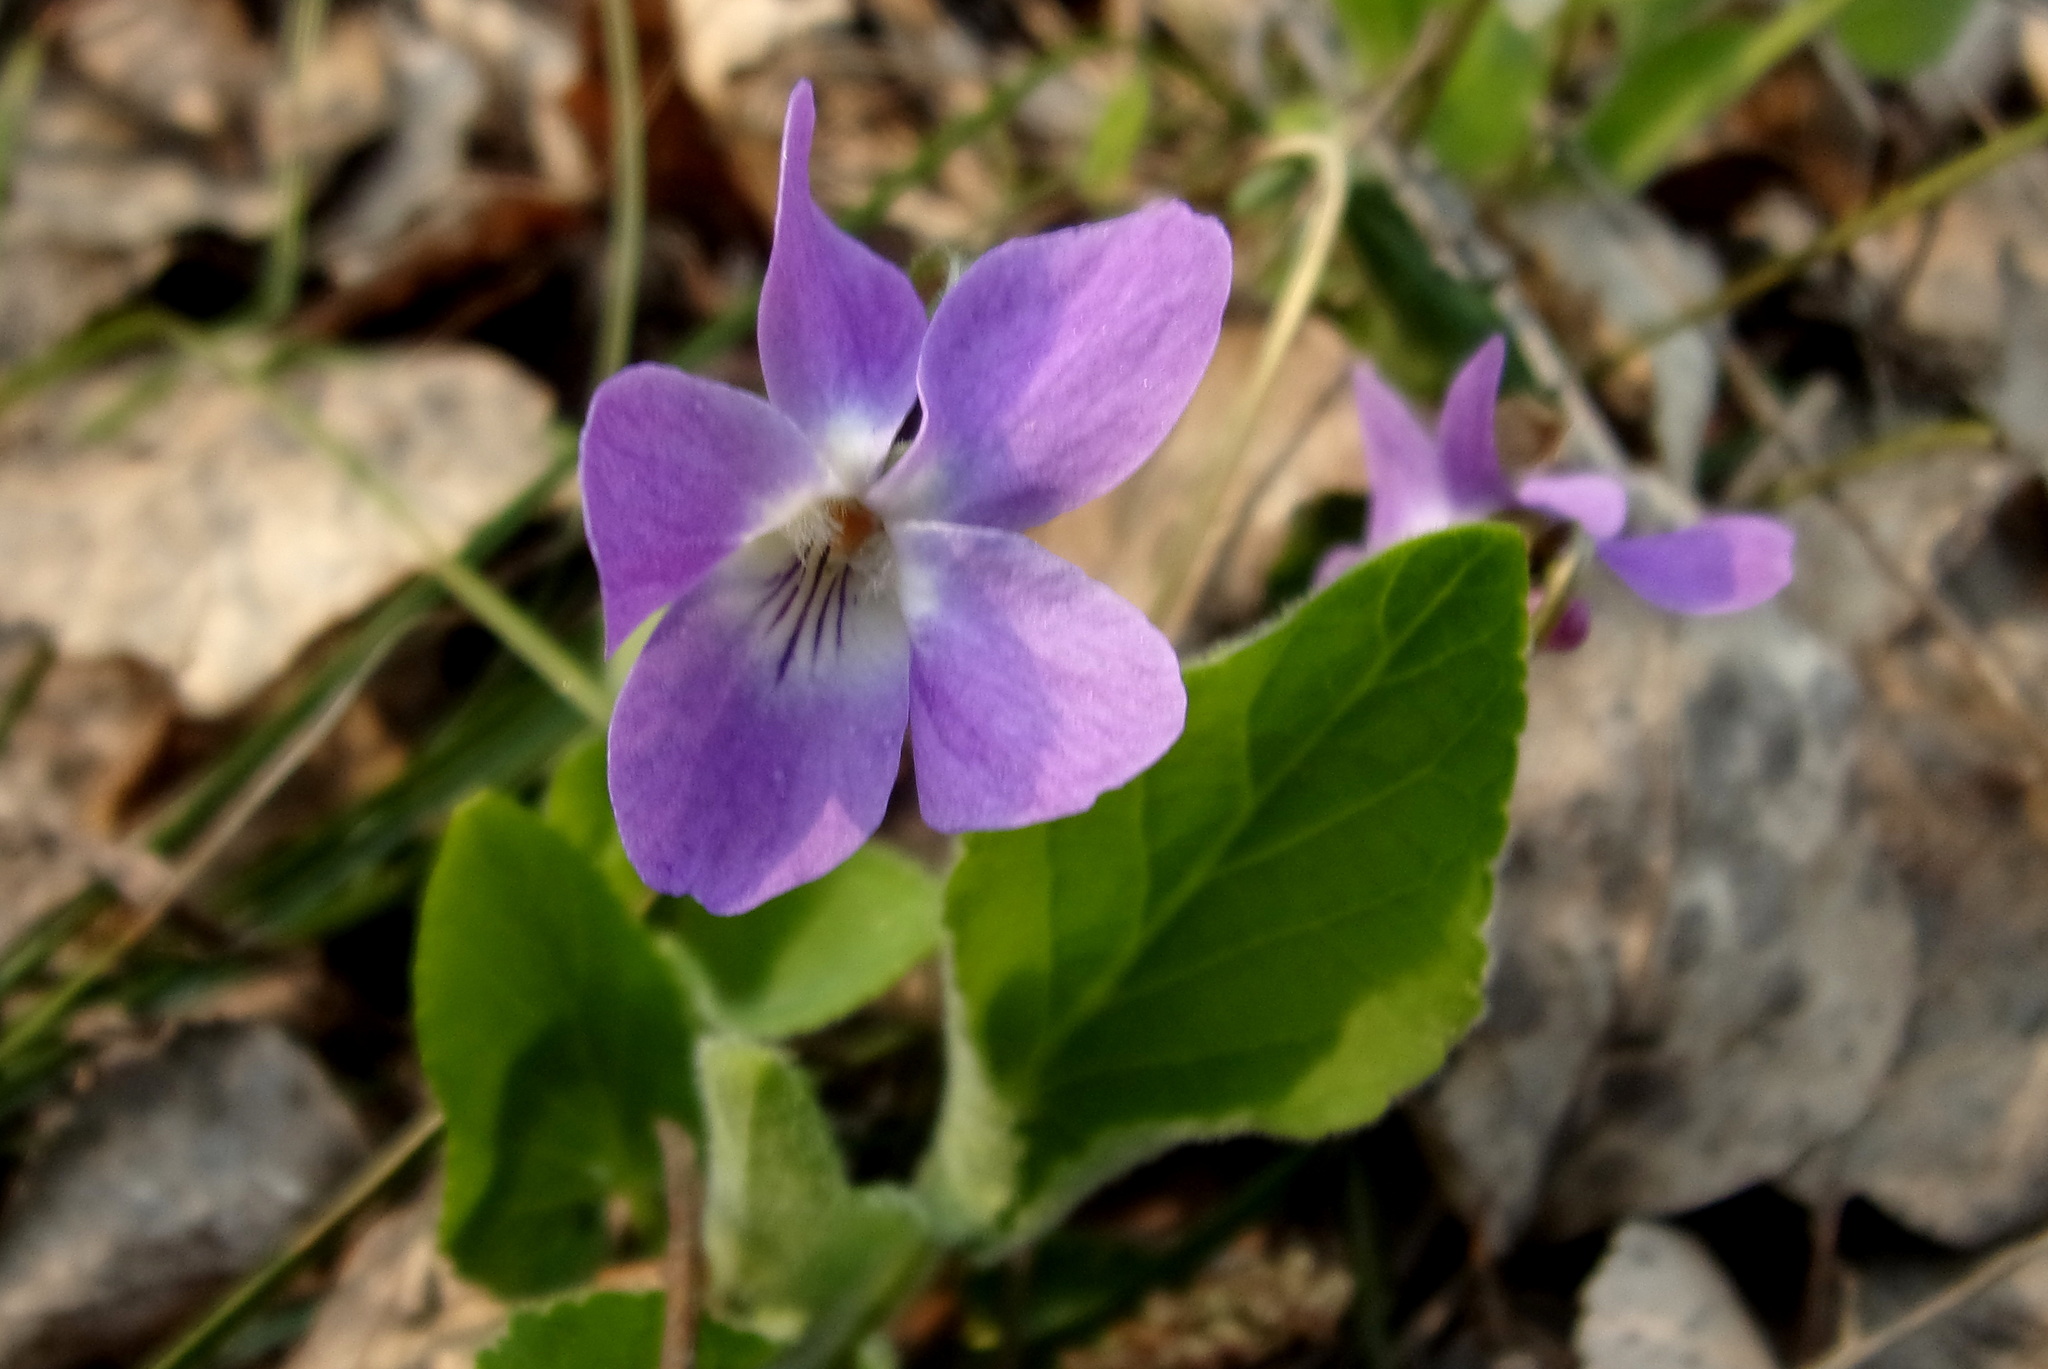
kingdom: Plantae
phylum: Tracheophyta
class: Magnoliopsida
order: Malpighiales
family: Violaceae
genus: Viola
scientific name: Viola hirta
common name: Hairy violet
